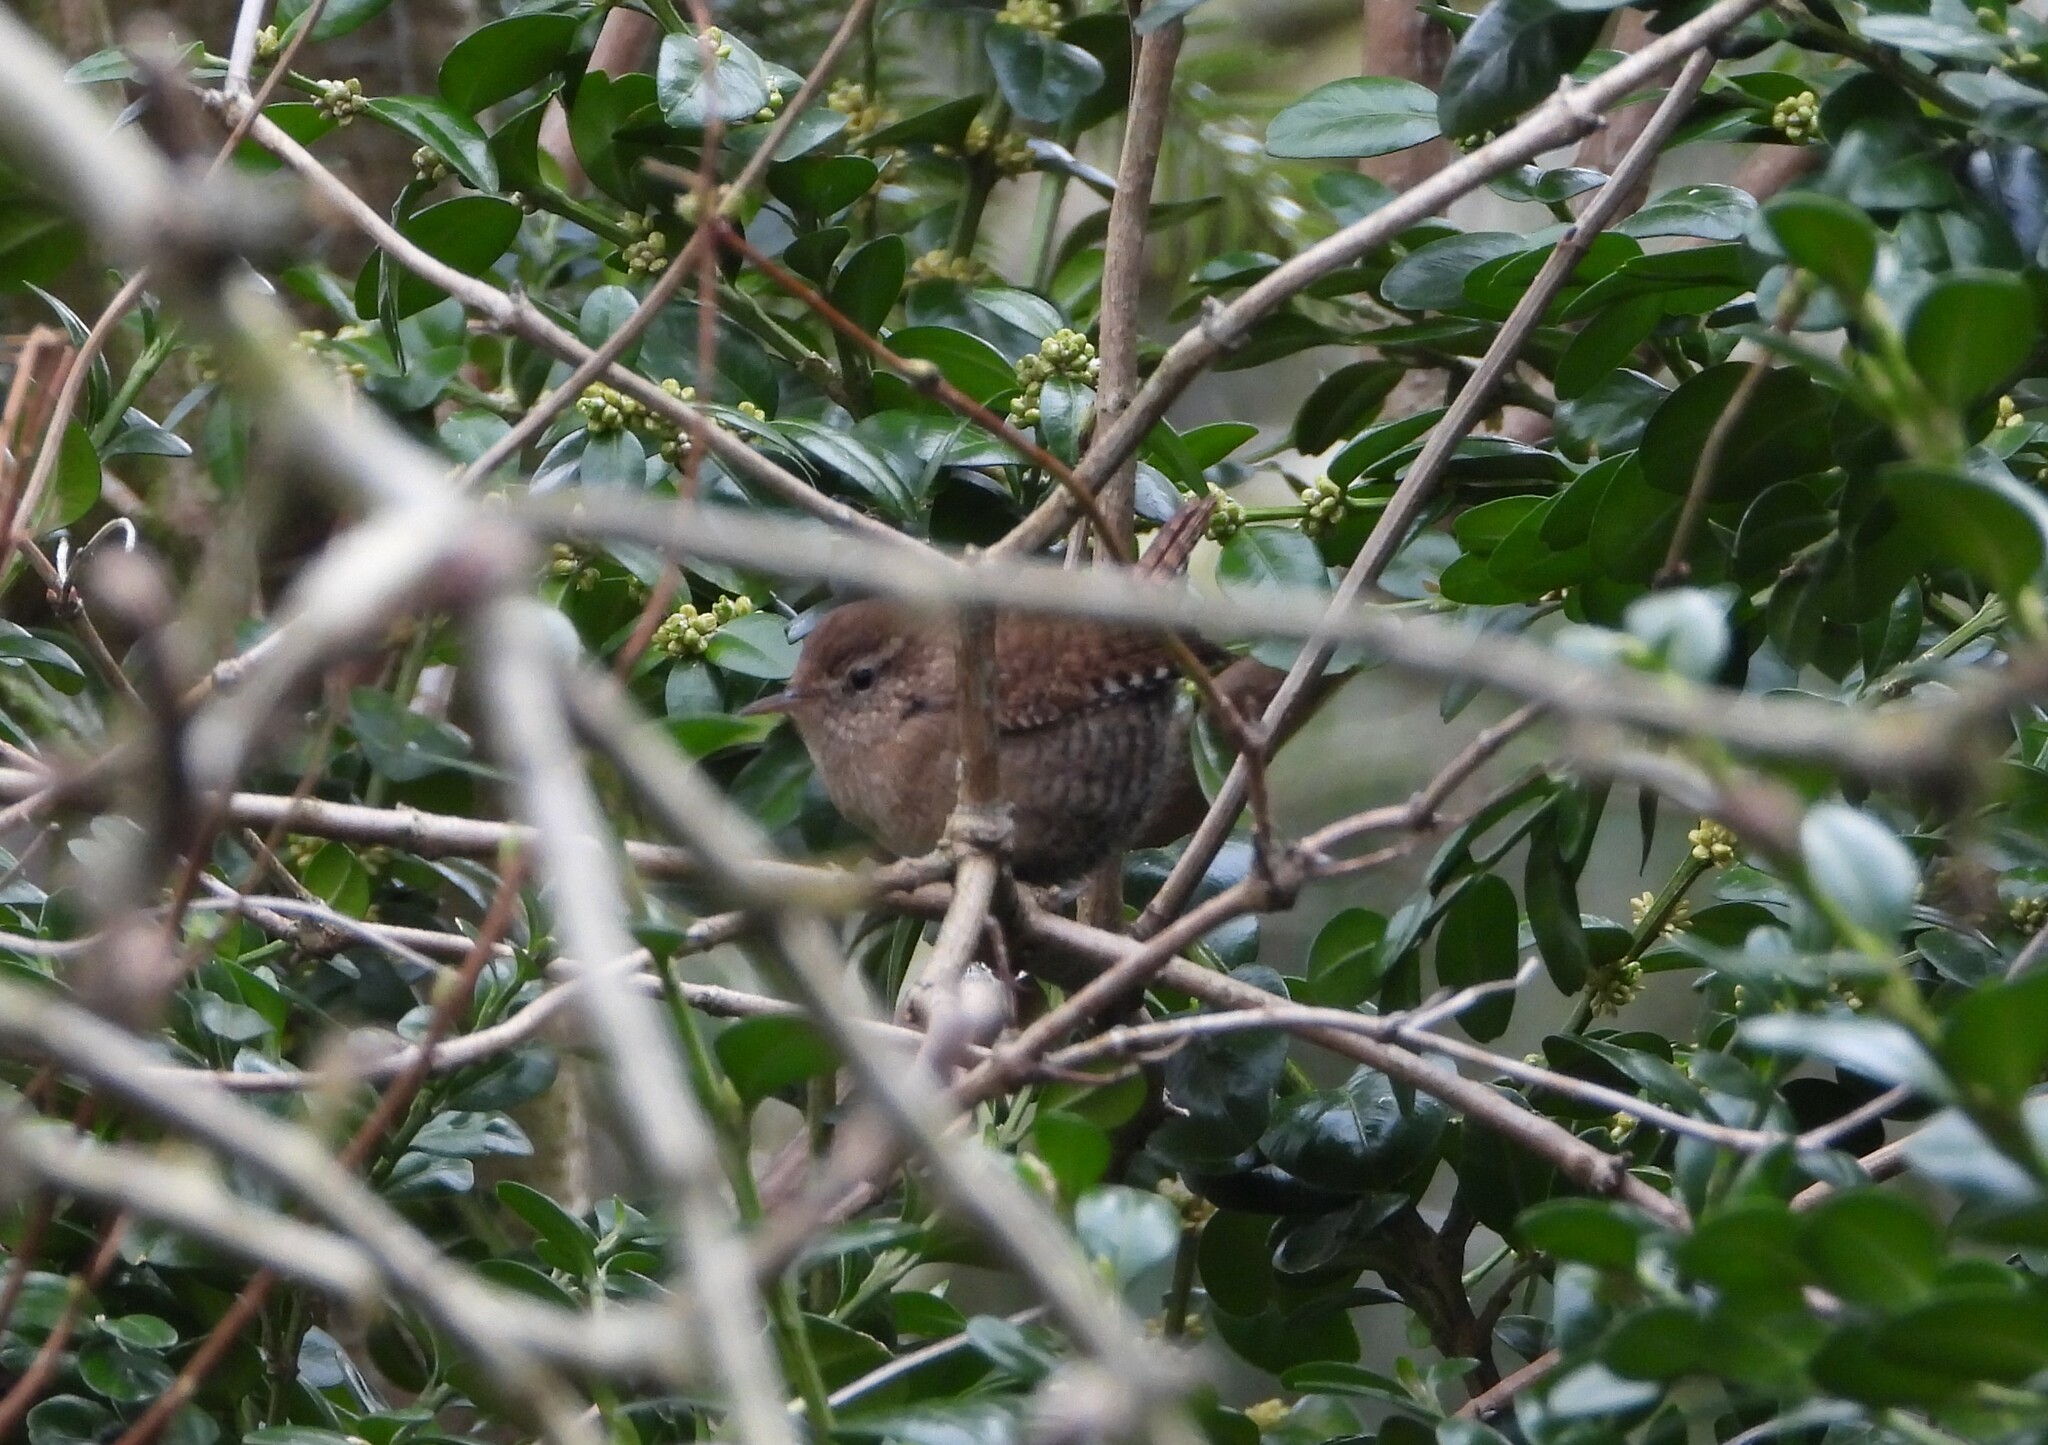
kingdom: Animalia
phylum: Chordata
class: Aves
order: Passeriformes
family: Troglodytidae
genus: Troglodytes
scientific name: Troglodytes troglodytes
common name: Eurasian wren
